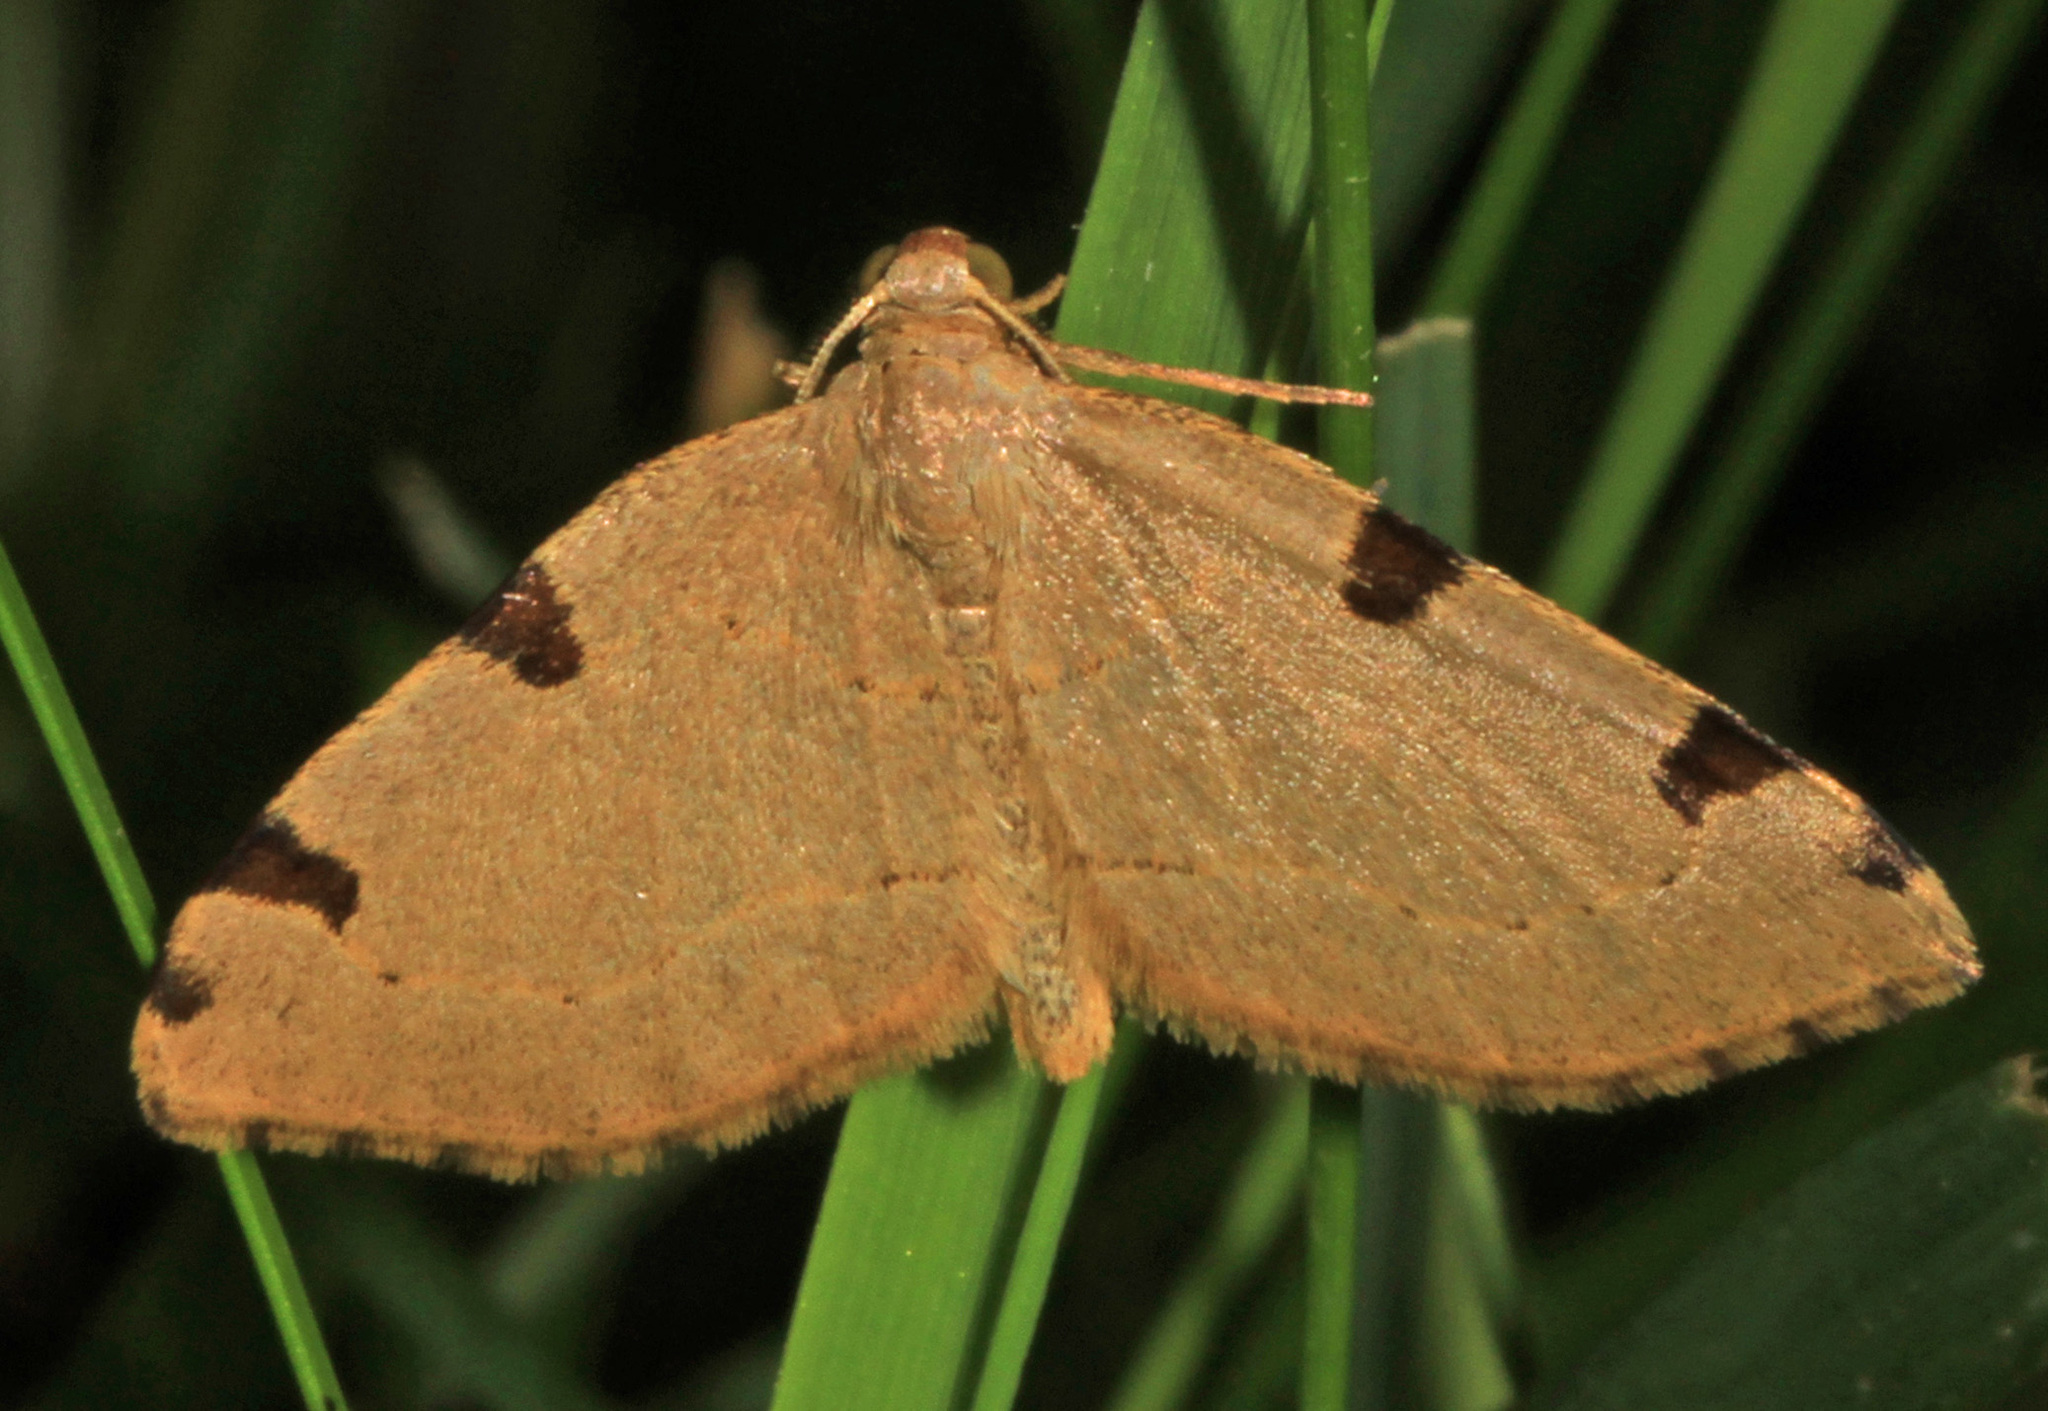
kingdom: Animalia
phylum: Arthropoda
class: Insecta
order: Lepidoptera
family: Geometridae
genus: Heterophleps
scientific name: Heterophleps triguttaria
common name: Three-spotted fillip
